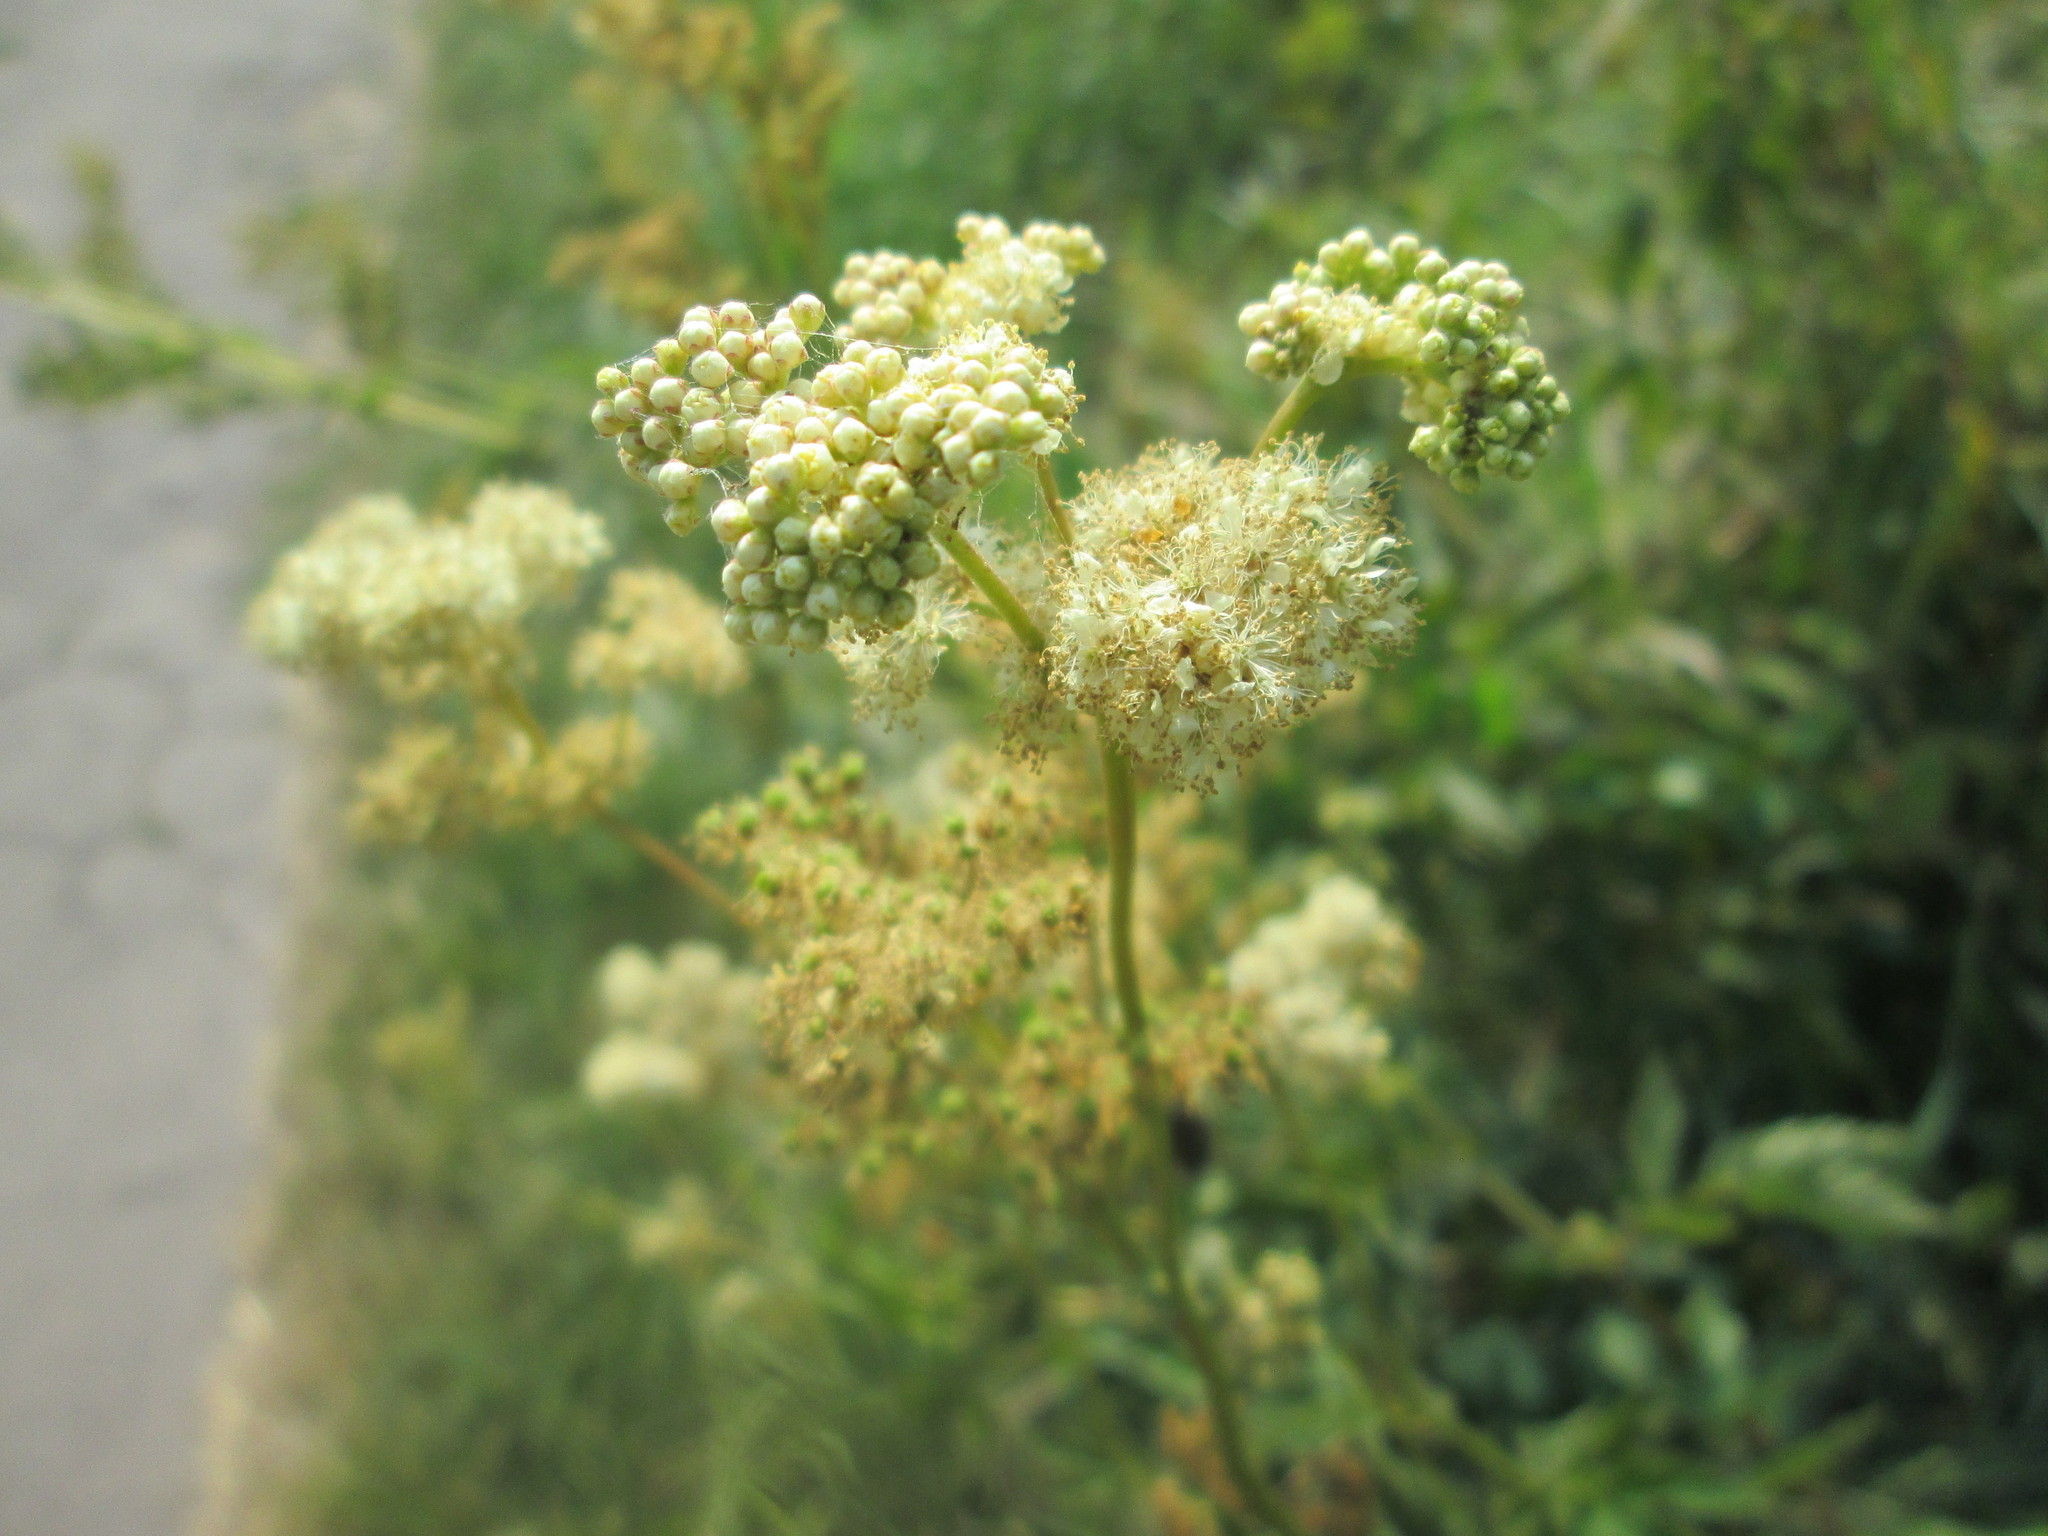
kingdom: Plantae
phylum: Tracheophyta
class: Magnoliopsida
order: Rosales
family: Rosaceae
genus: Filipendula
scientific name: Filipendula ulmaria
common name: Meadowsweet
